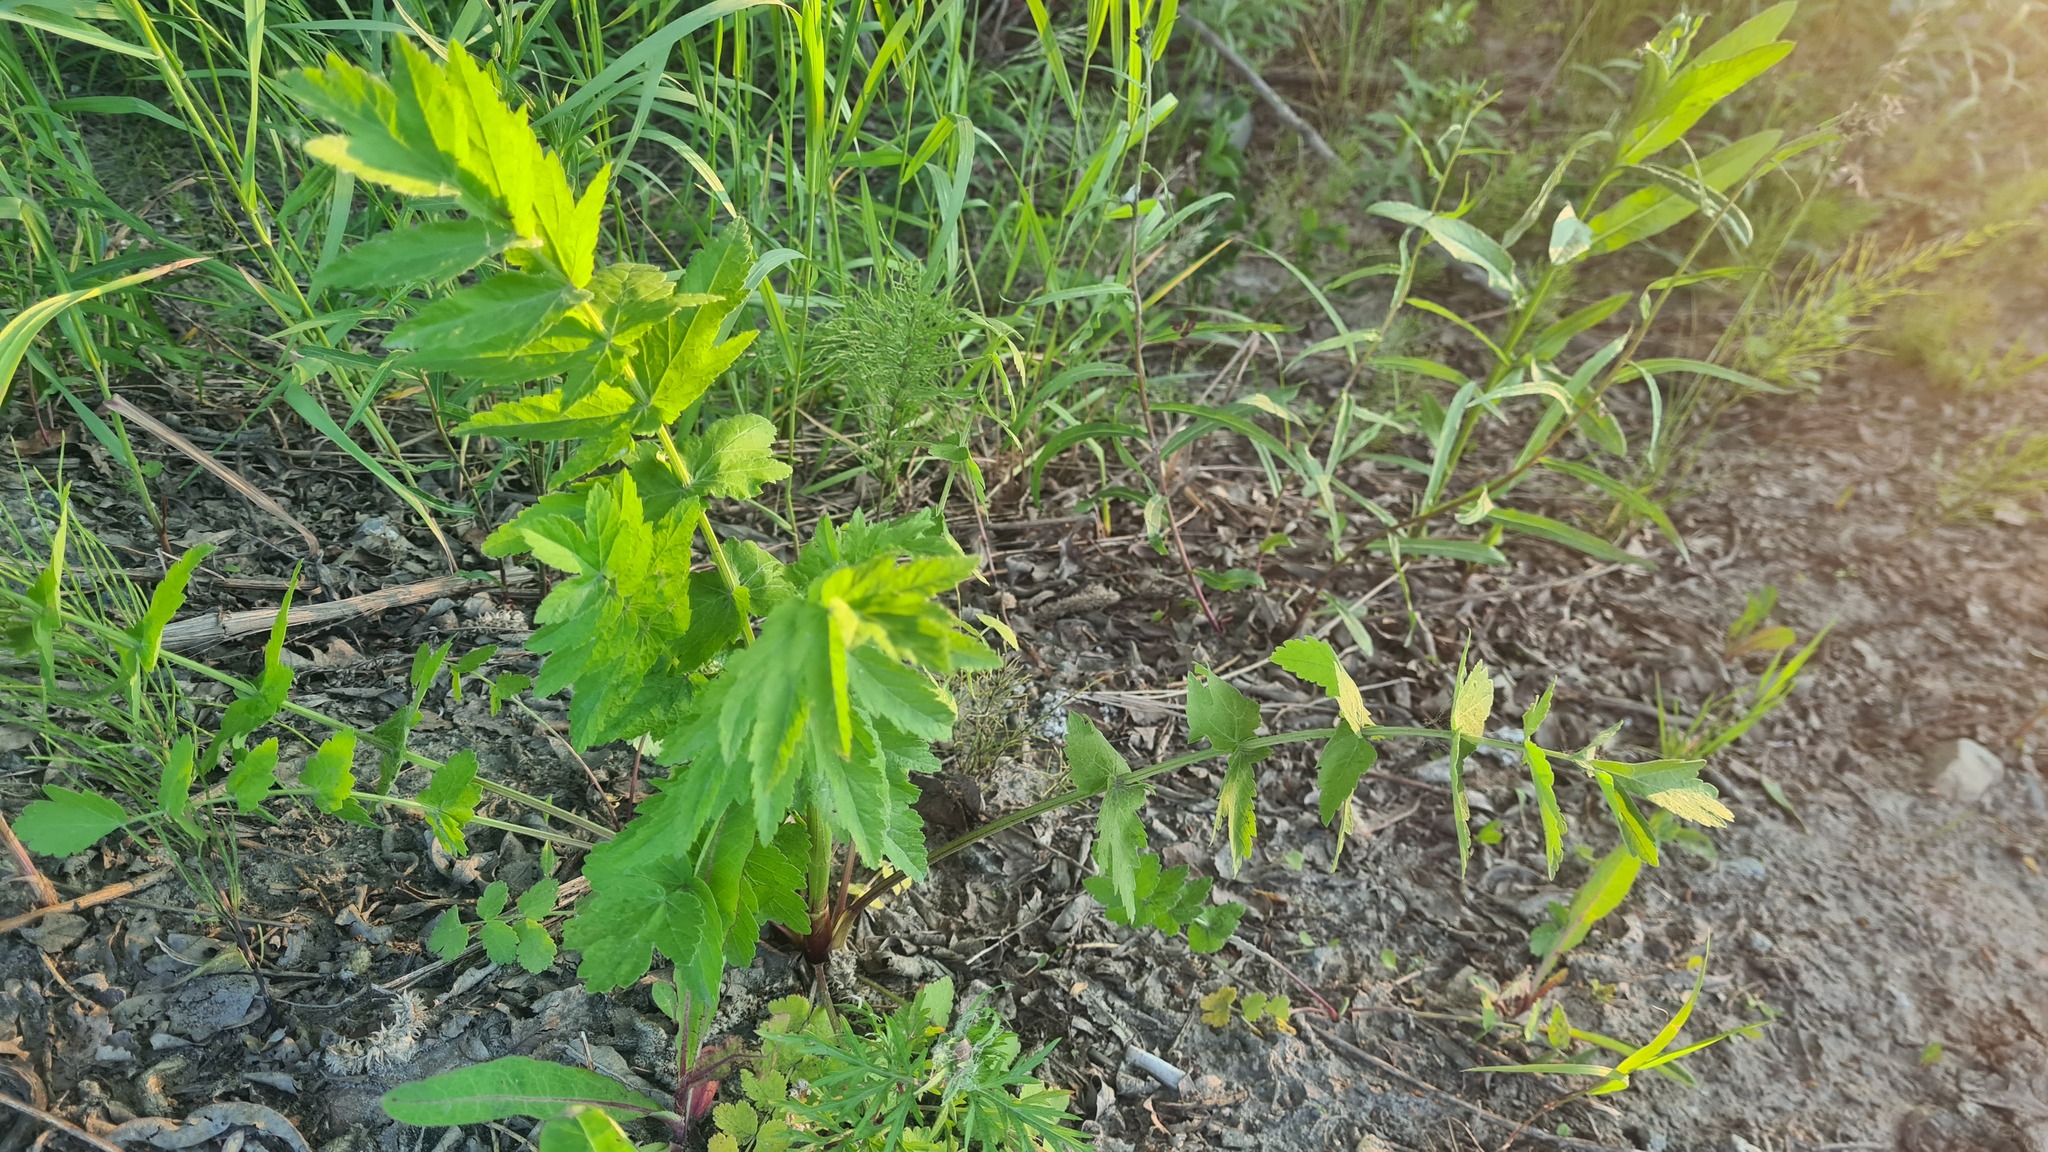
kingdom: Plantae
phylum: Tracheophyta
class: Magnoliopsida
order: Apiales
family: Apiaceae
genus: Pastinaca
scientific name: Pastinaca sativa
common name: Wild parsnip
